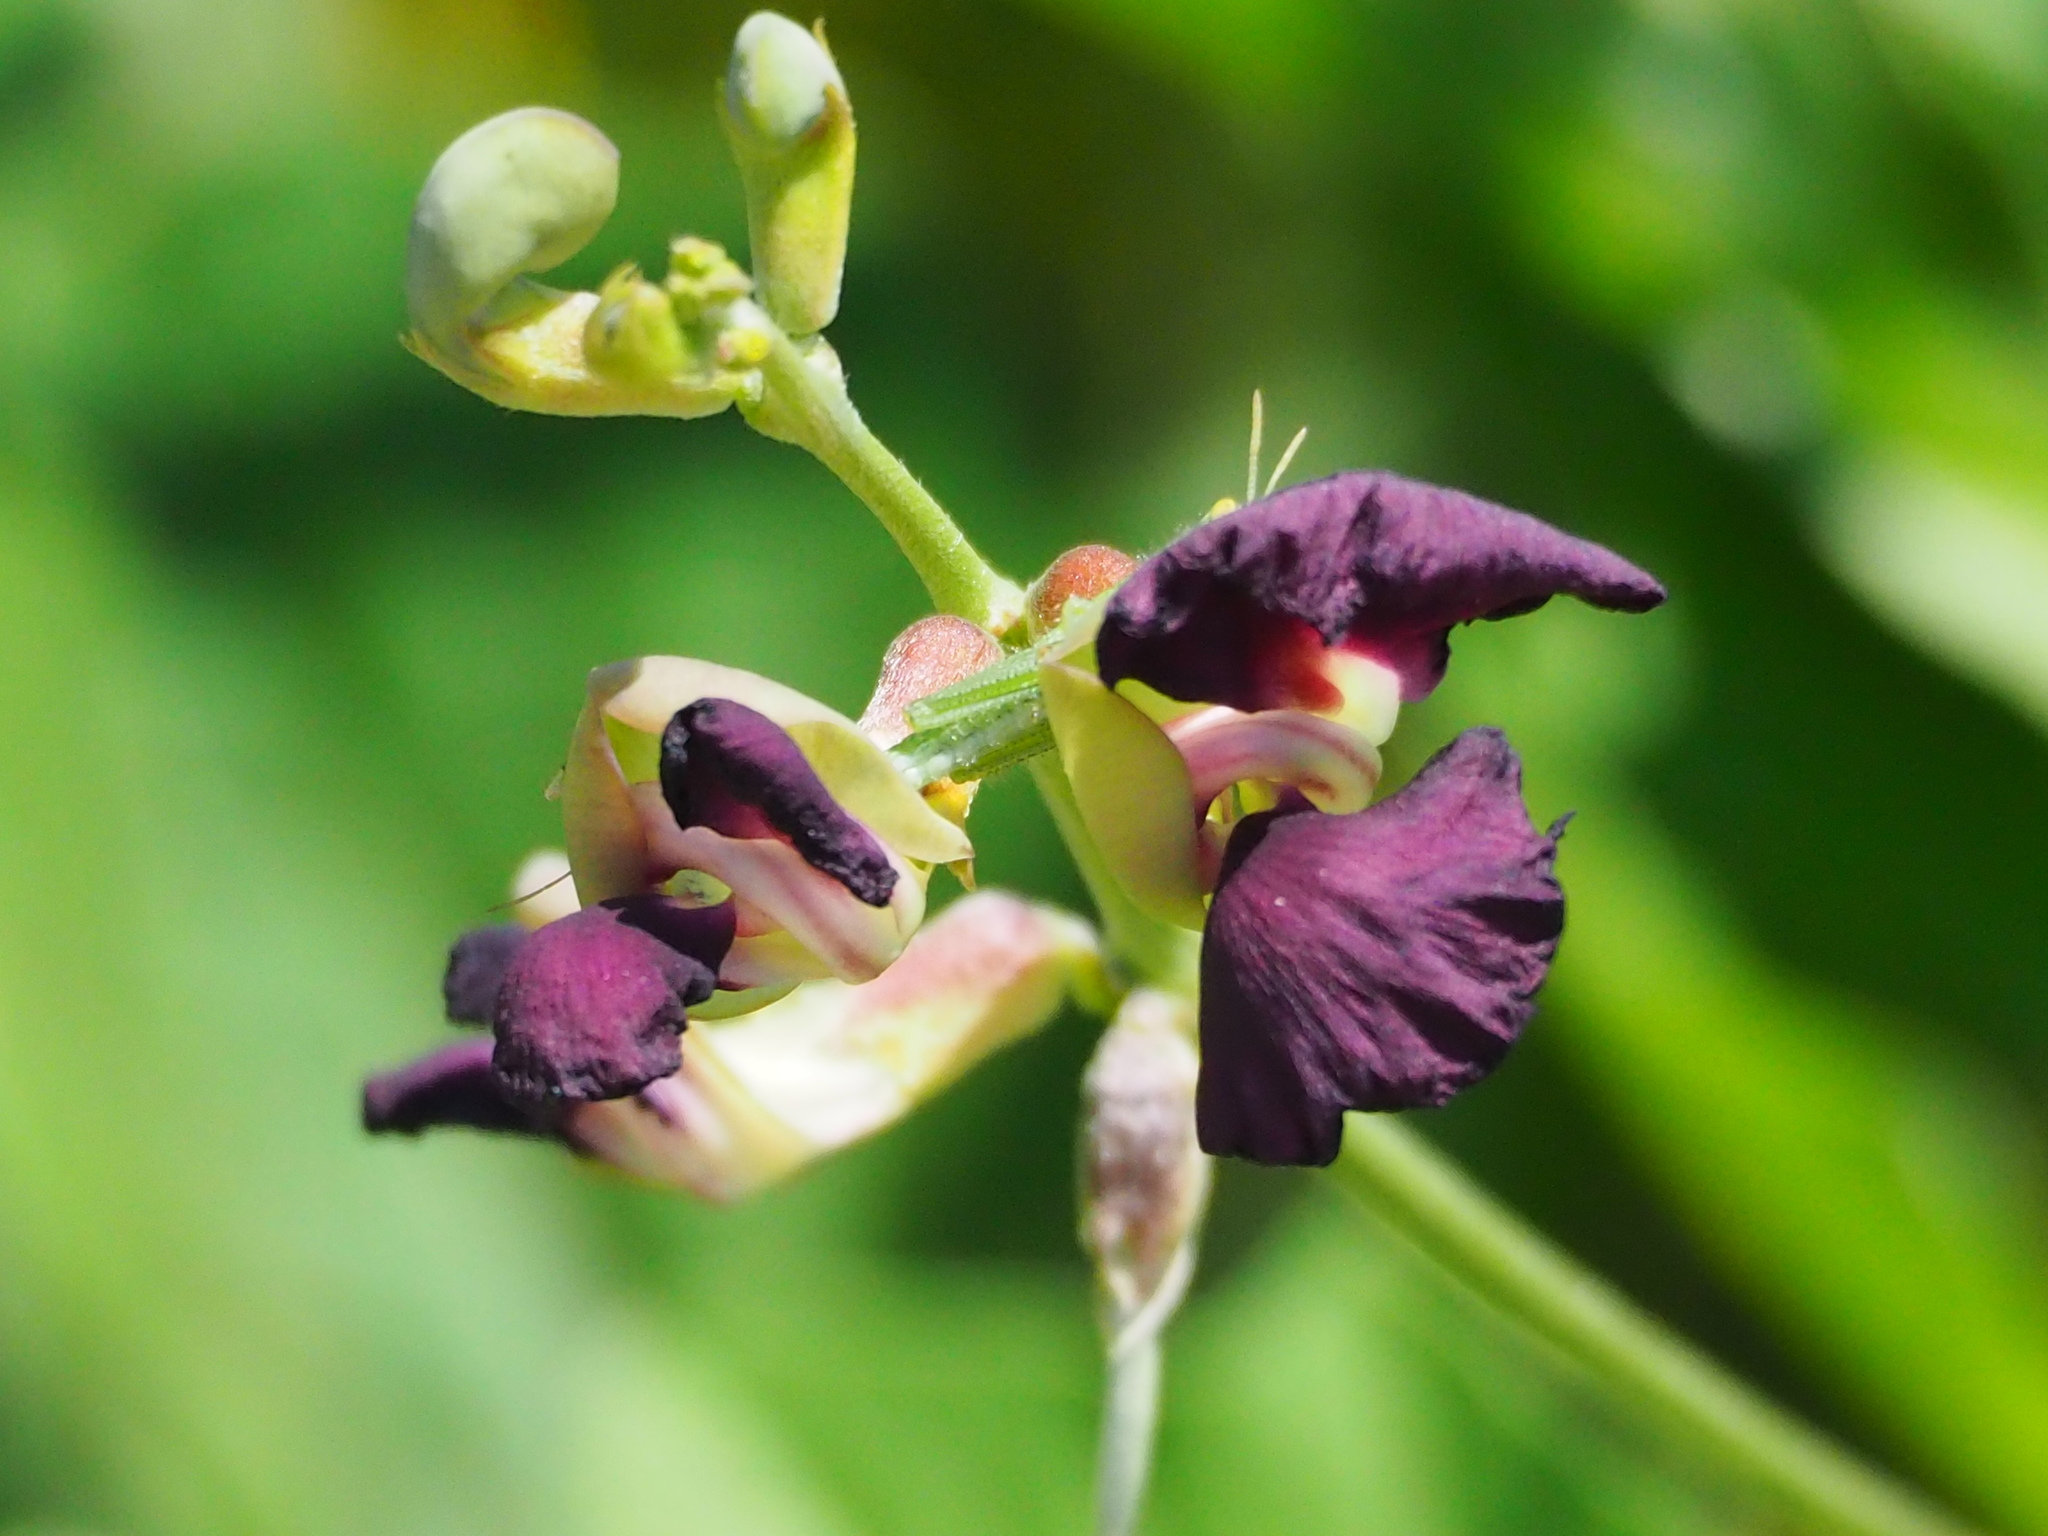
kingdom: Plantae
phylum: Tracheophyta
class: Magnoliopsida
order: Fabales
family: Fabaceae
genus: Macroptilium
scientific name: Macroptilium atropurpureum
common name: Purple bushbean
